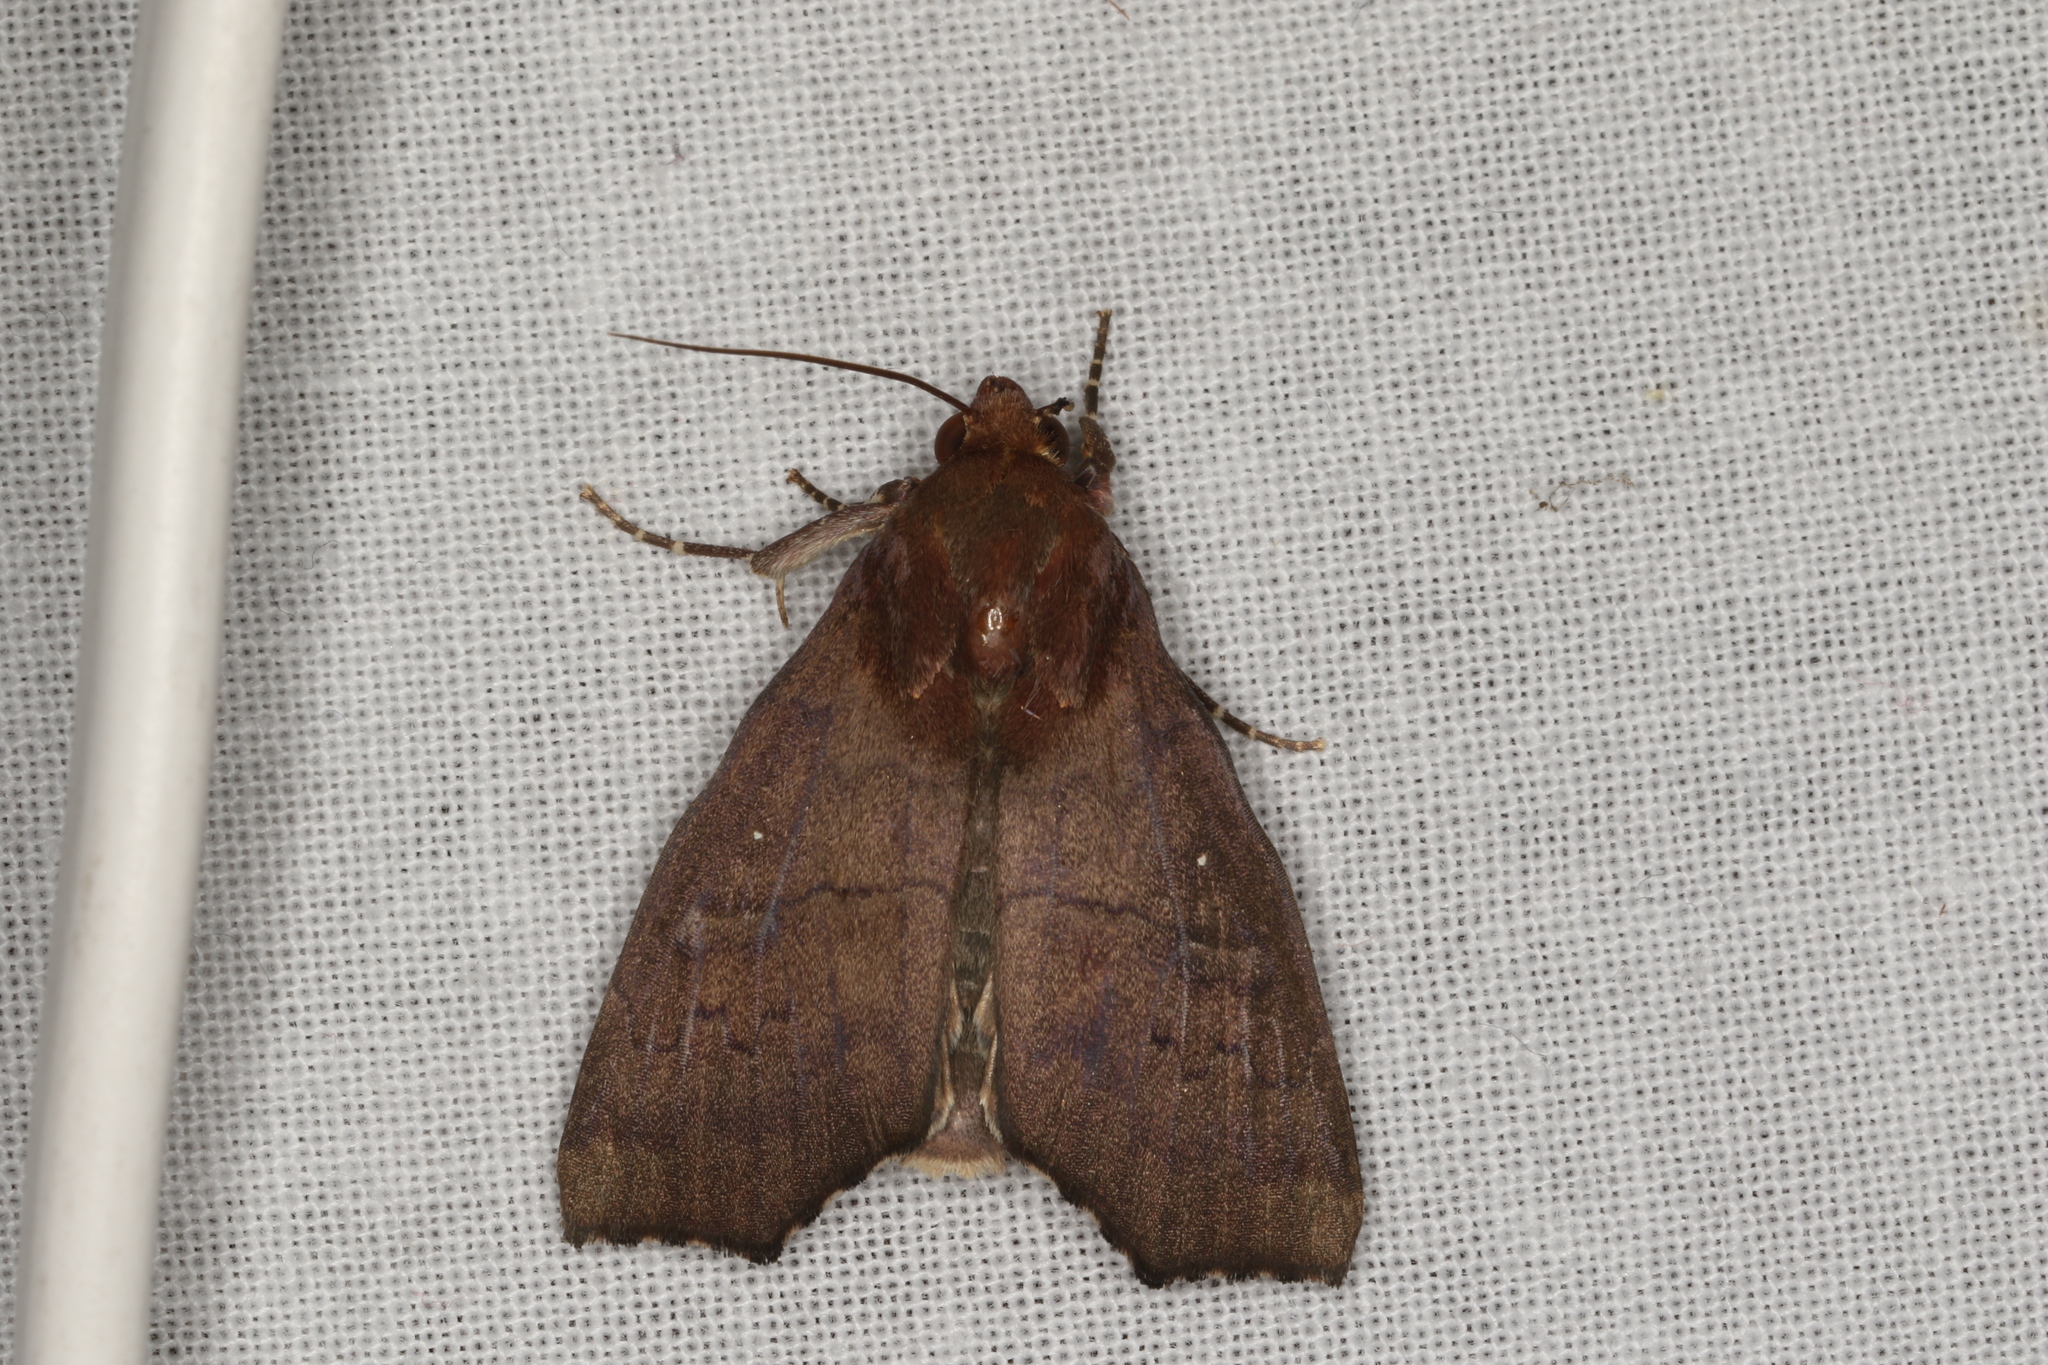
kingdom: Animalia
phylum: Arthropoda
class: Insecta
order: Lepidoptera
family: Erebidae
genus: Rusicada
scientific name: Rusicada nigritarsis
